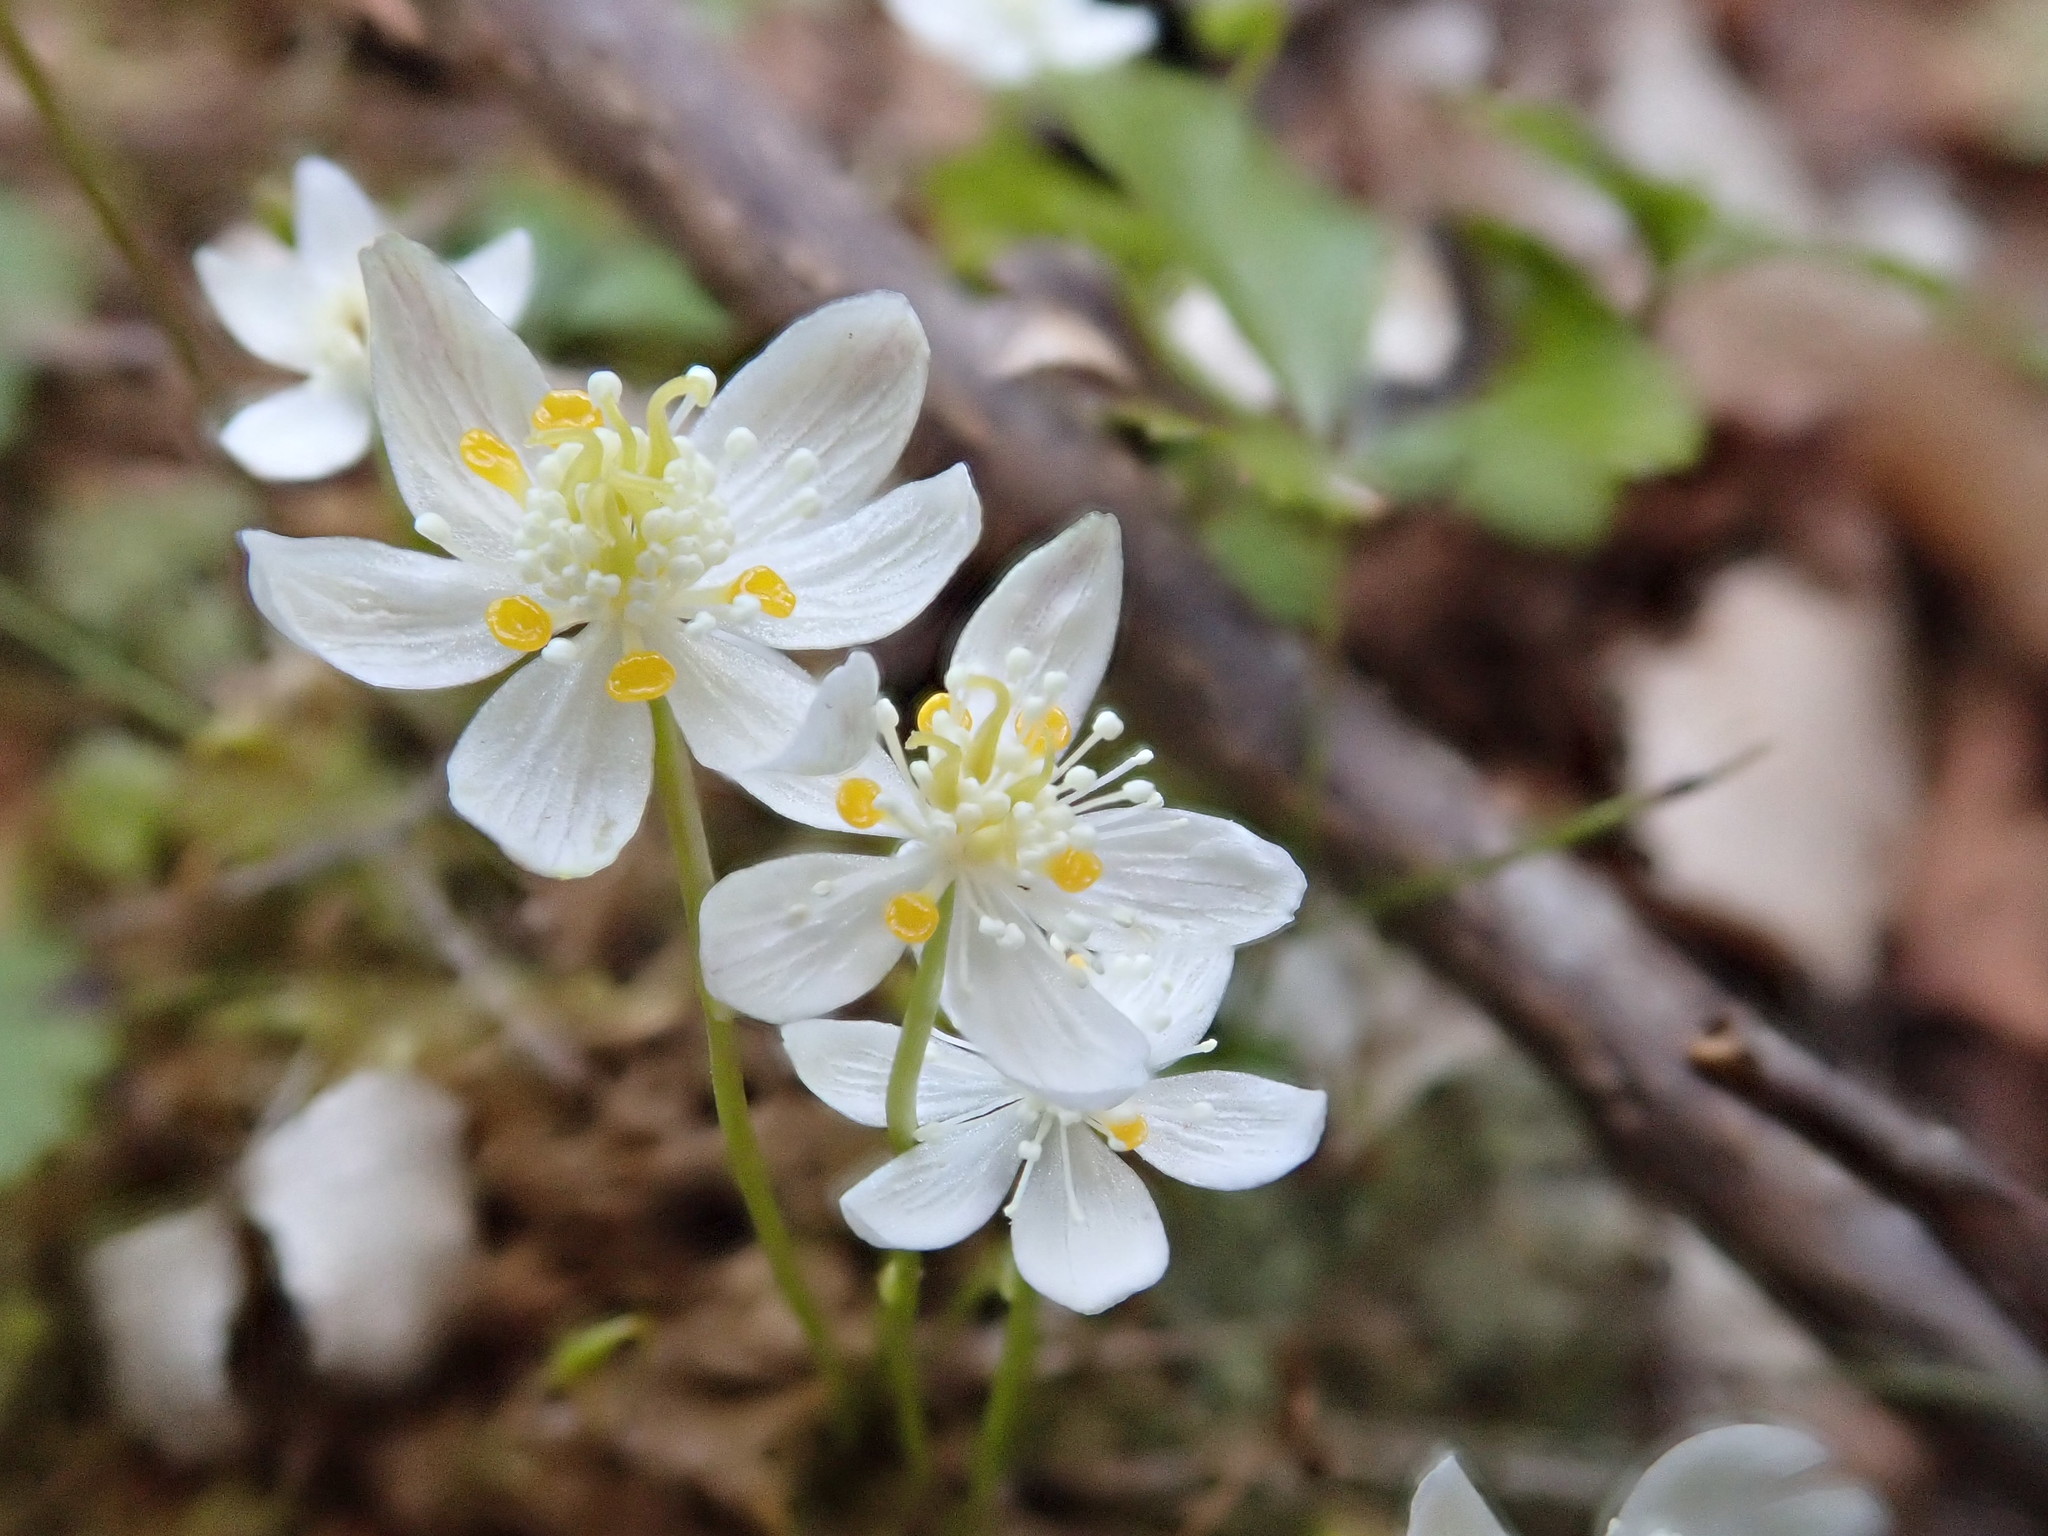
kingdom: Plantae
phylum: Tracheophyta
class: Magnoliopsida
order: Ranunculales
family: Ranunculaceae
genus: Coptis
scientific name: Coptis trifolia
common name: Canker-root
